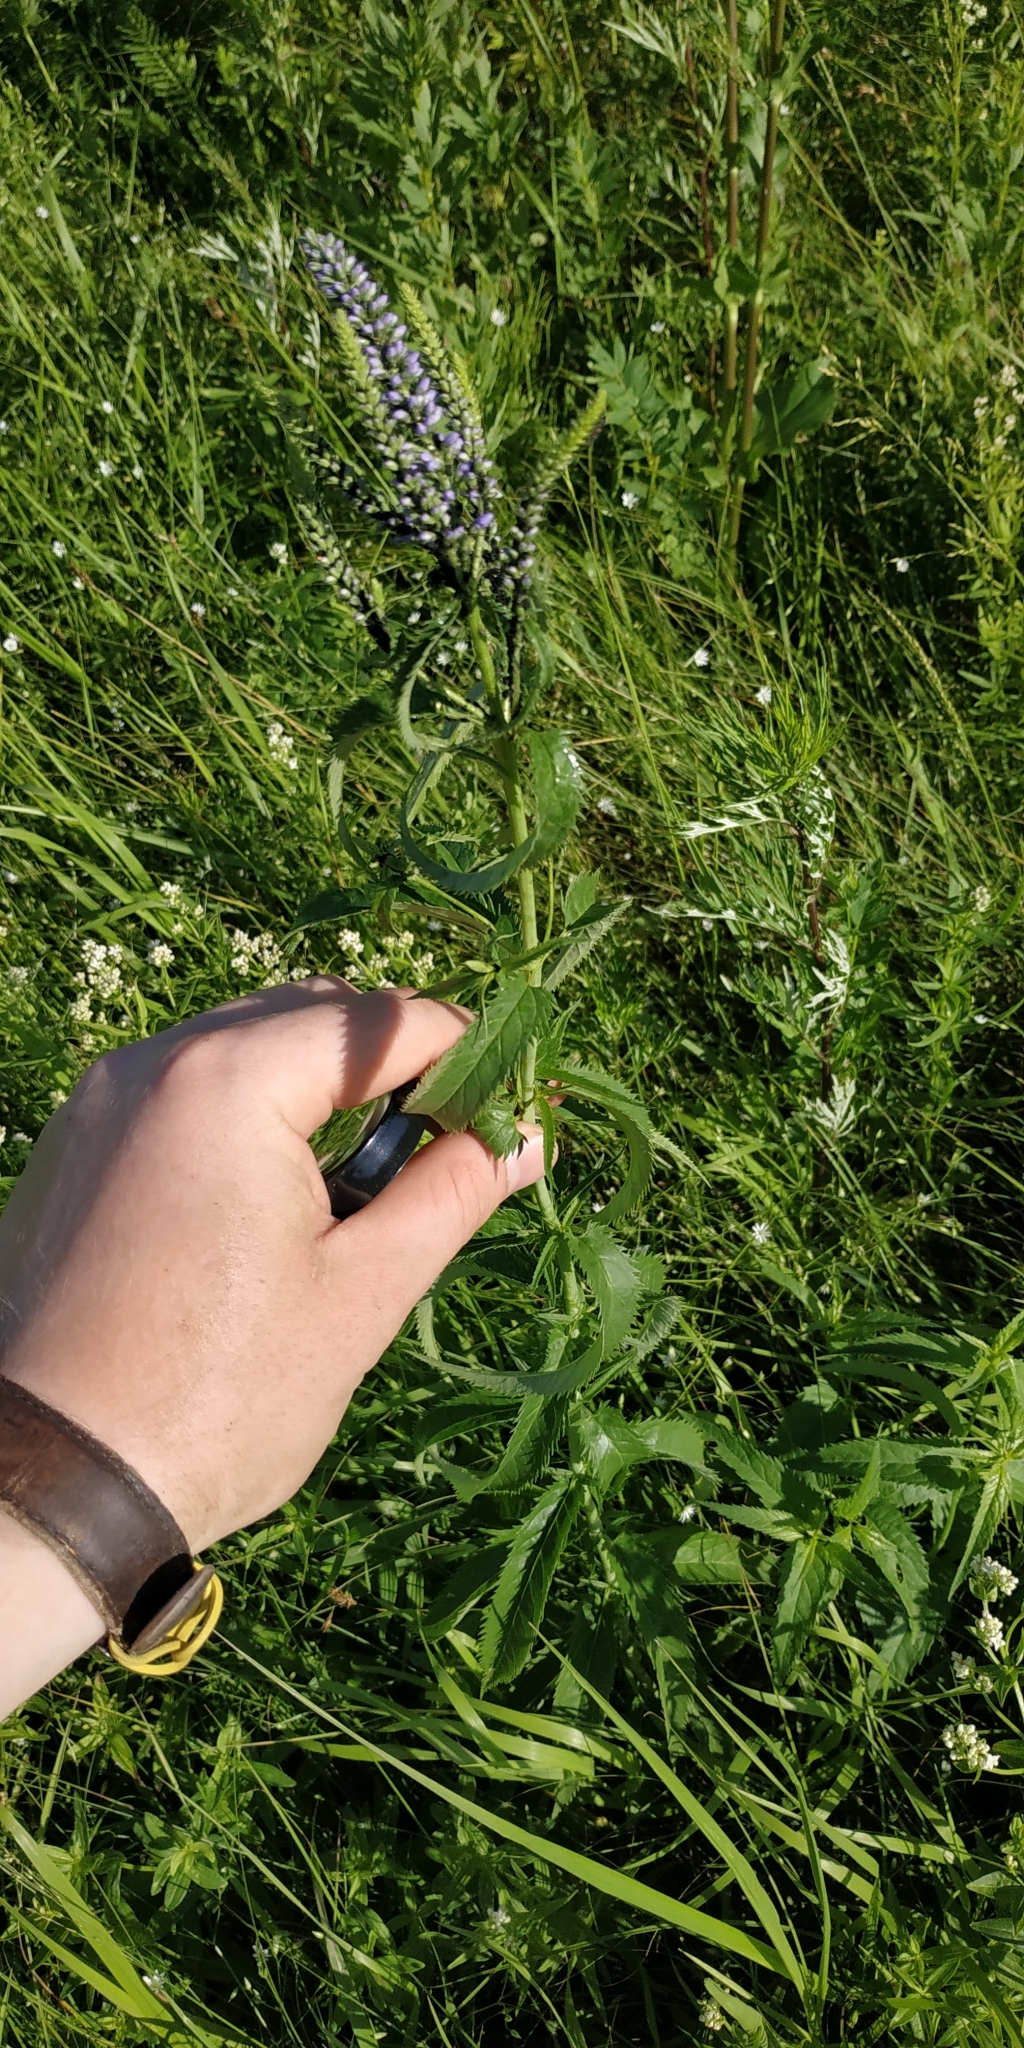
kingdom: Plantae
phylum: Tracheophyta
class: Magnoliopsida
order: Lamiales
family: Plantaginaceae
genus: Veronica
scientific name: Veronica longifolia
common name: Garden speedwell
